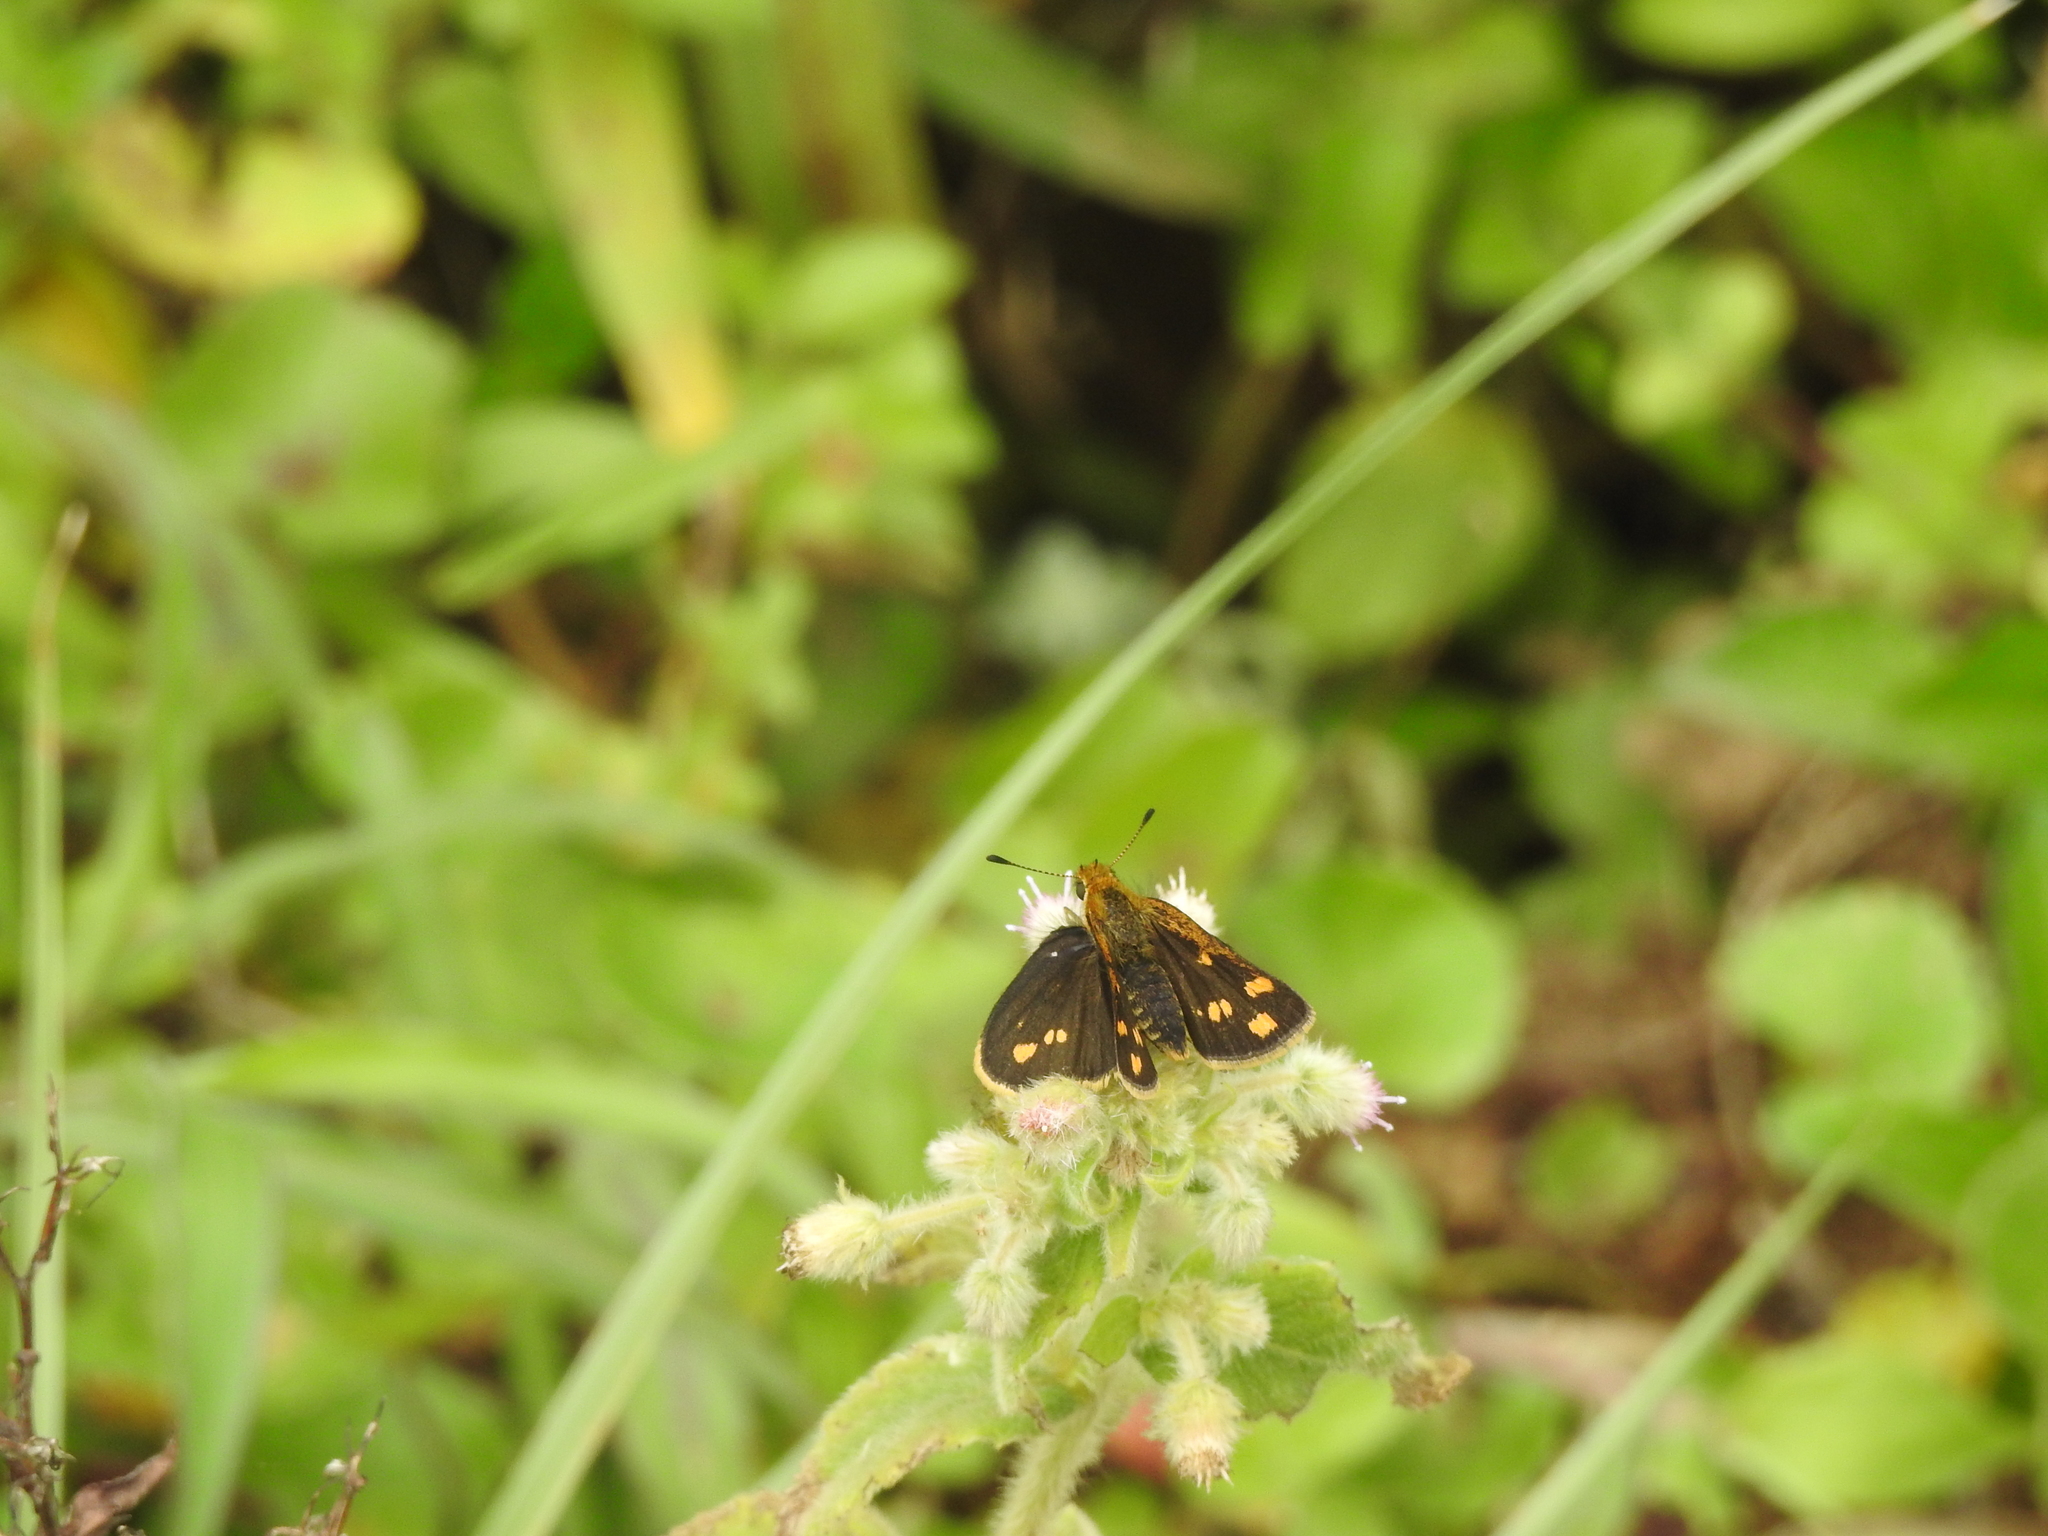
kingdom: Animalia
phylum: Arthropoda
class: Insecta
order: Lepidoptera
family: Hesperiidae
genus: Taractrocera
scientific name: Taractrocera ceramas
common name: Tamil grass dart
